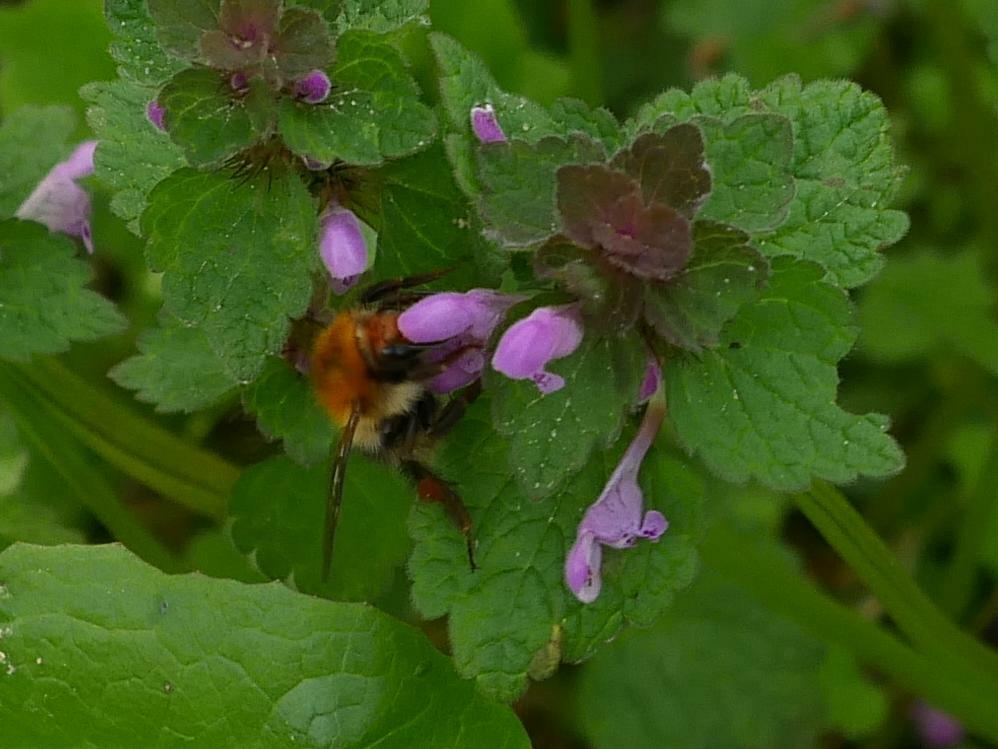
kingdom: Animalia
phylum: Arthropoda
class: Insecta
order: Hymenoptera
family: Apidae
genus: Bombus
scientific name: Bombus pascuorum
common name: Common carder bee
